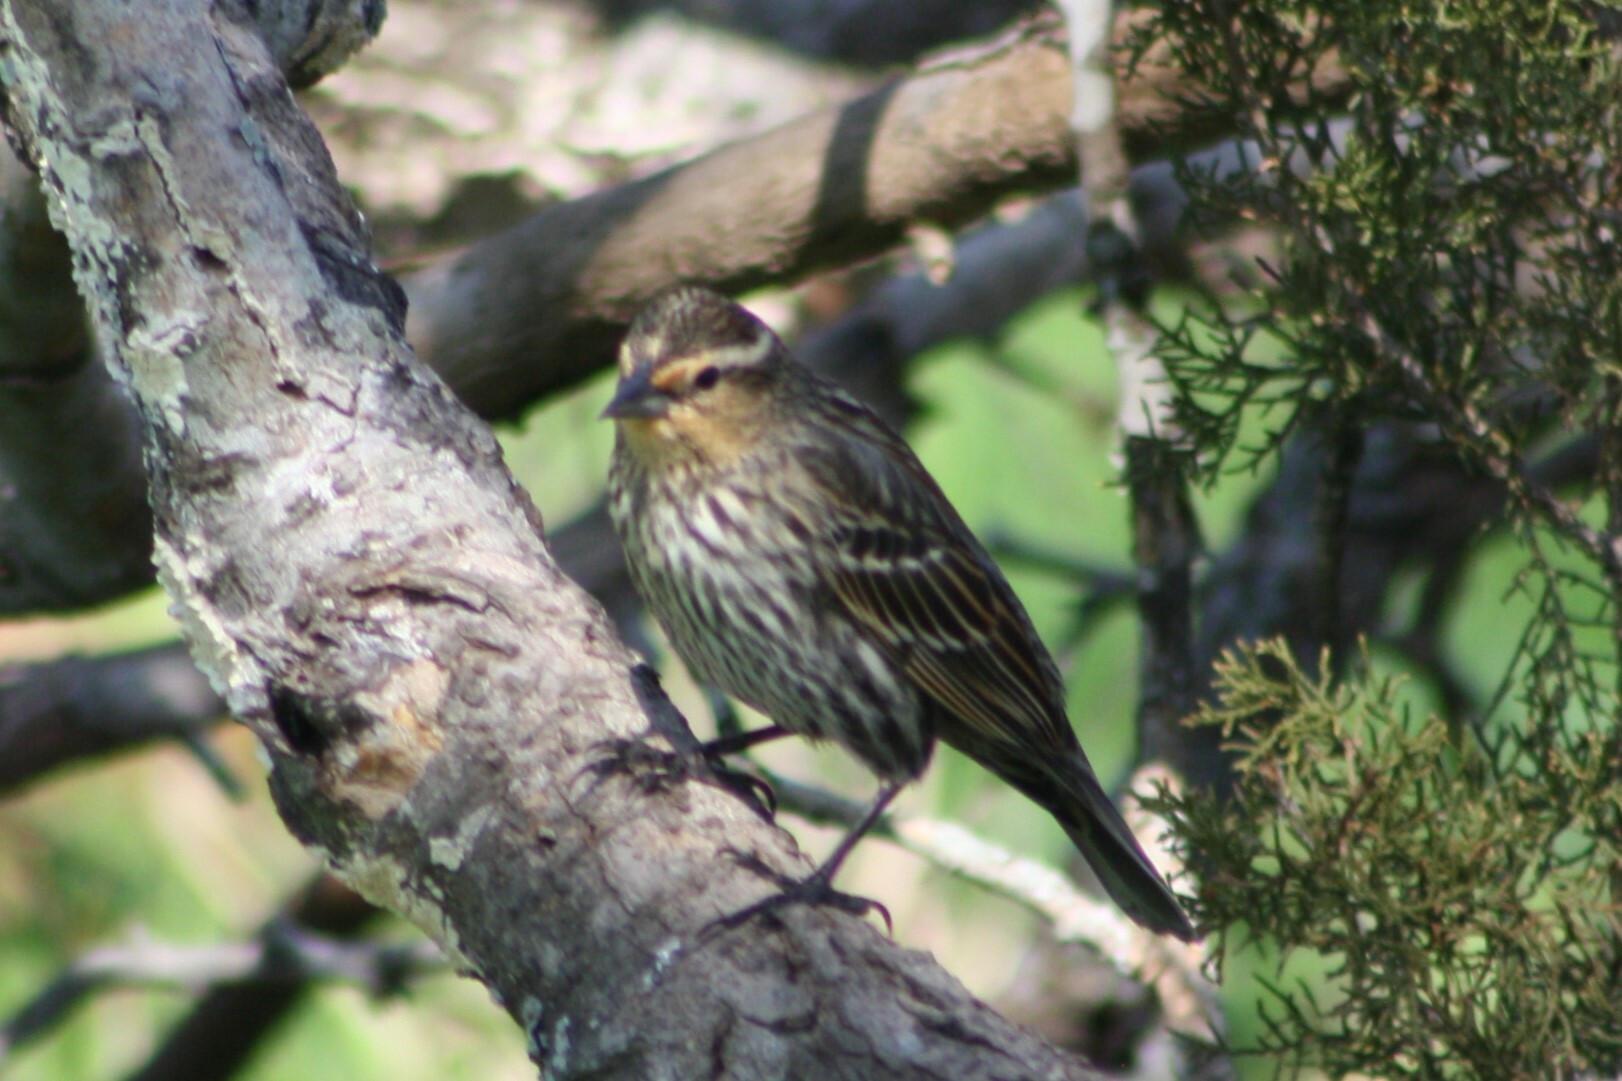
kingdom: Animalia
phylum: Chordata
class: Aves
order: Passeriformes
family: Icteridae
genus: Agelaius
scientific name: Agelaius phoeniceus
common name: Red-winged blackbird
